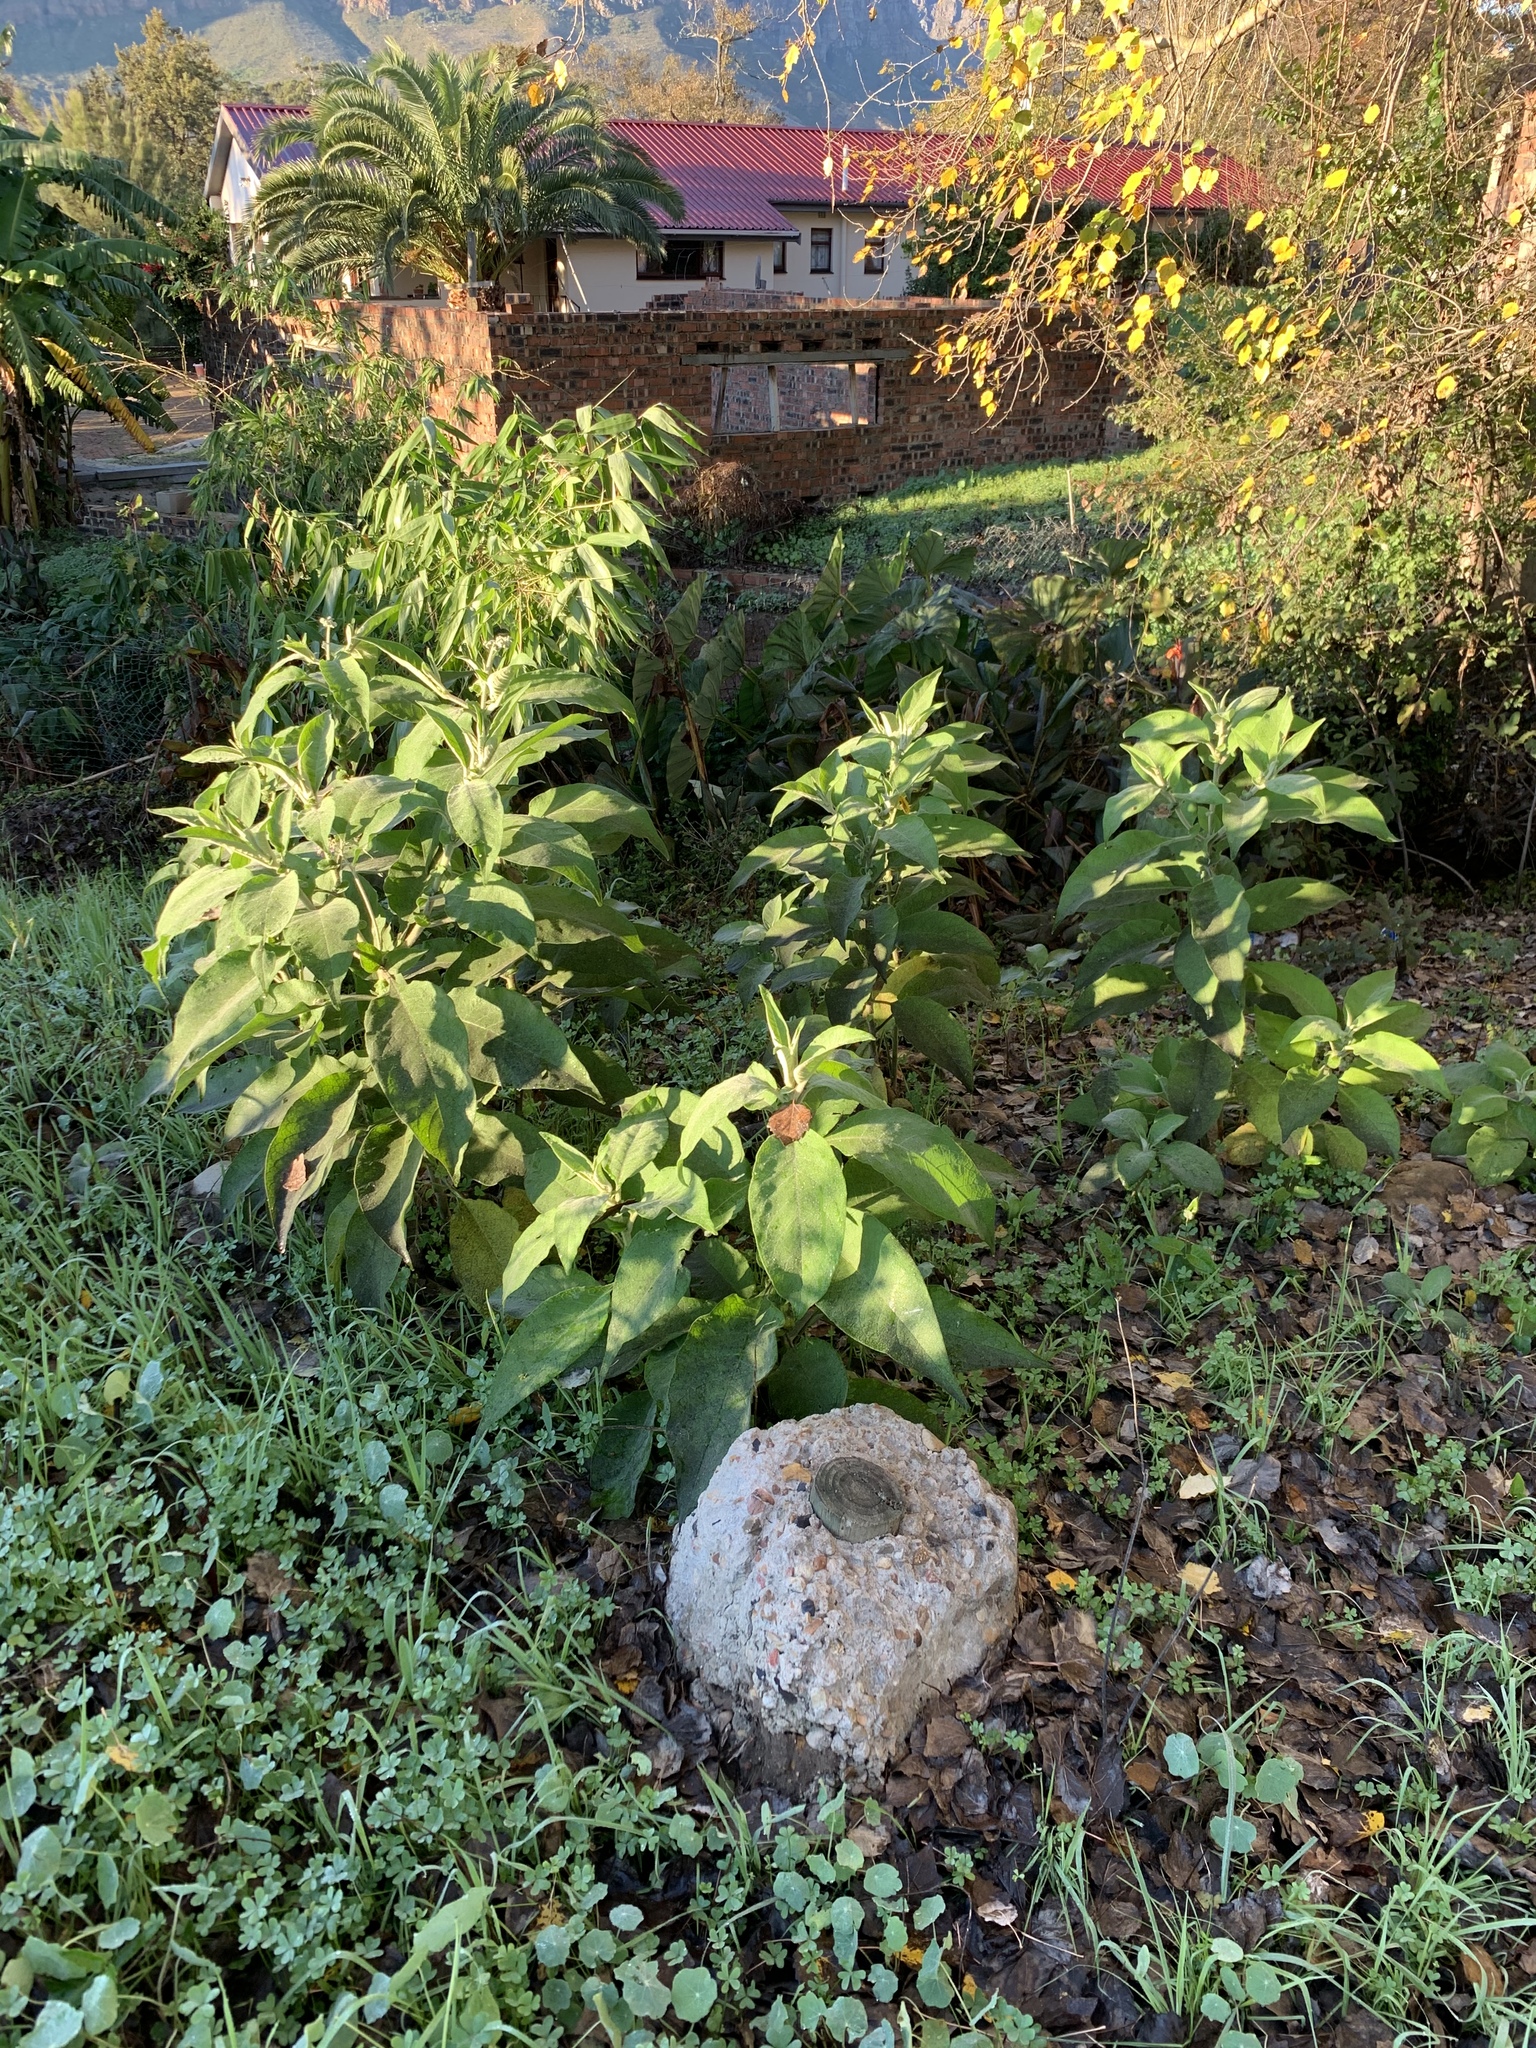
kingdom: Plantae
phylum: Tracheophyta
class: Magnoliopsida
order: Solanales
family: Solanaceae
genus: Solanum
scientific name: Solanum mauritianum
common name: Earleaf nightshade
